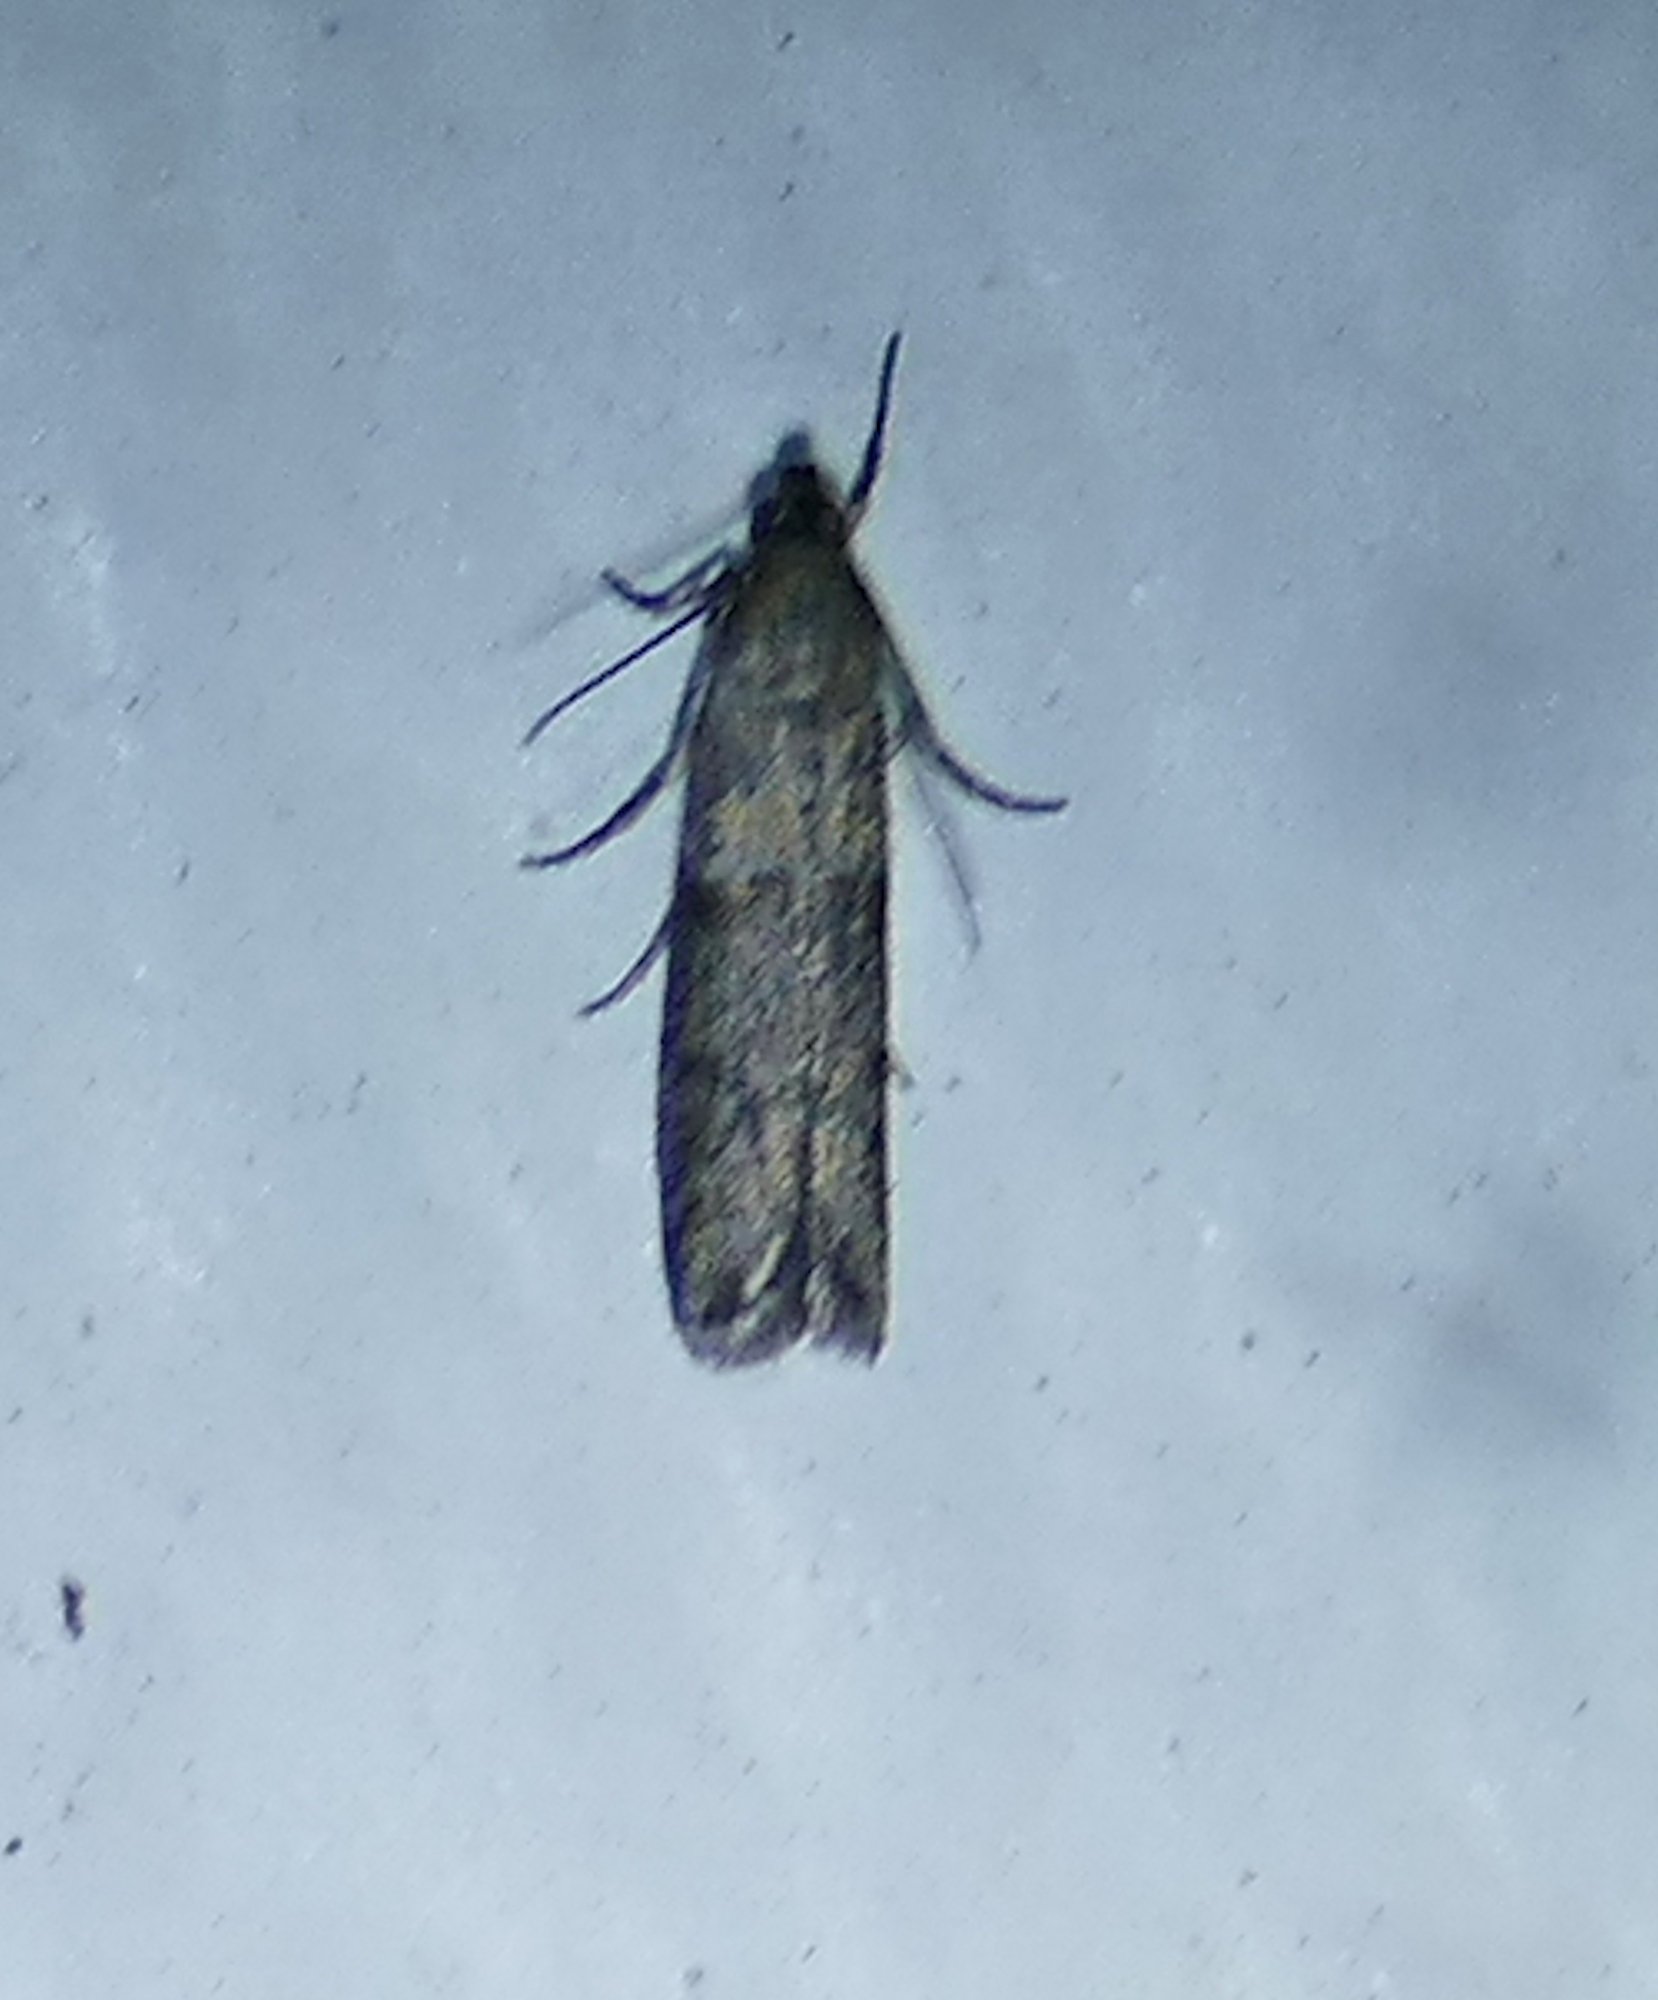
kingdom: Animalia
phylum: Arthropoda
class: Insecta
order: Lepidoptera
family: Pyralidae
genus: Ephestiodes
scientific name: Ephestiodes gilvescentella
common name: Moth
